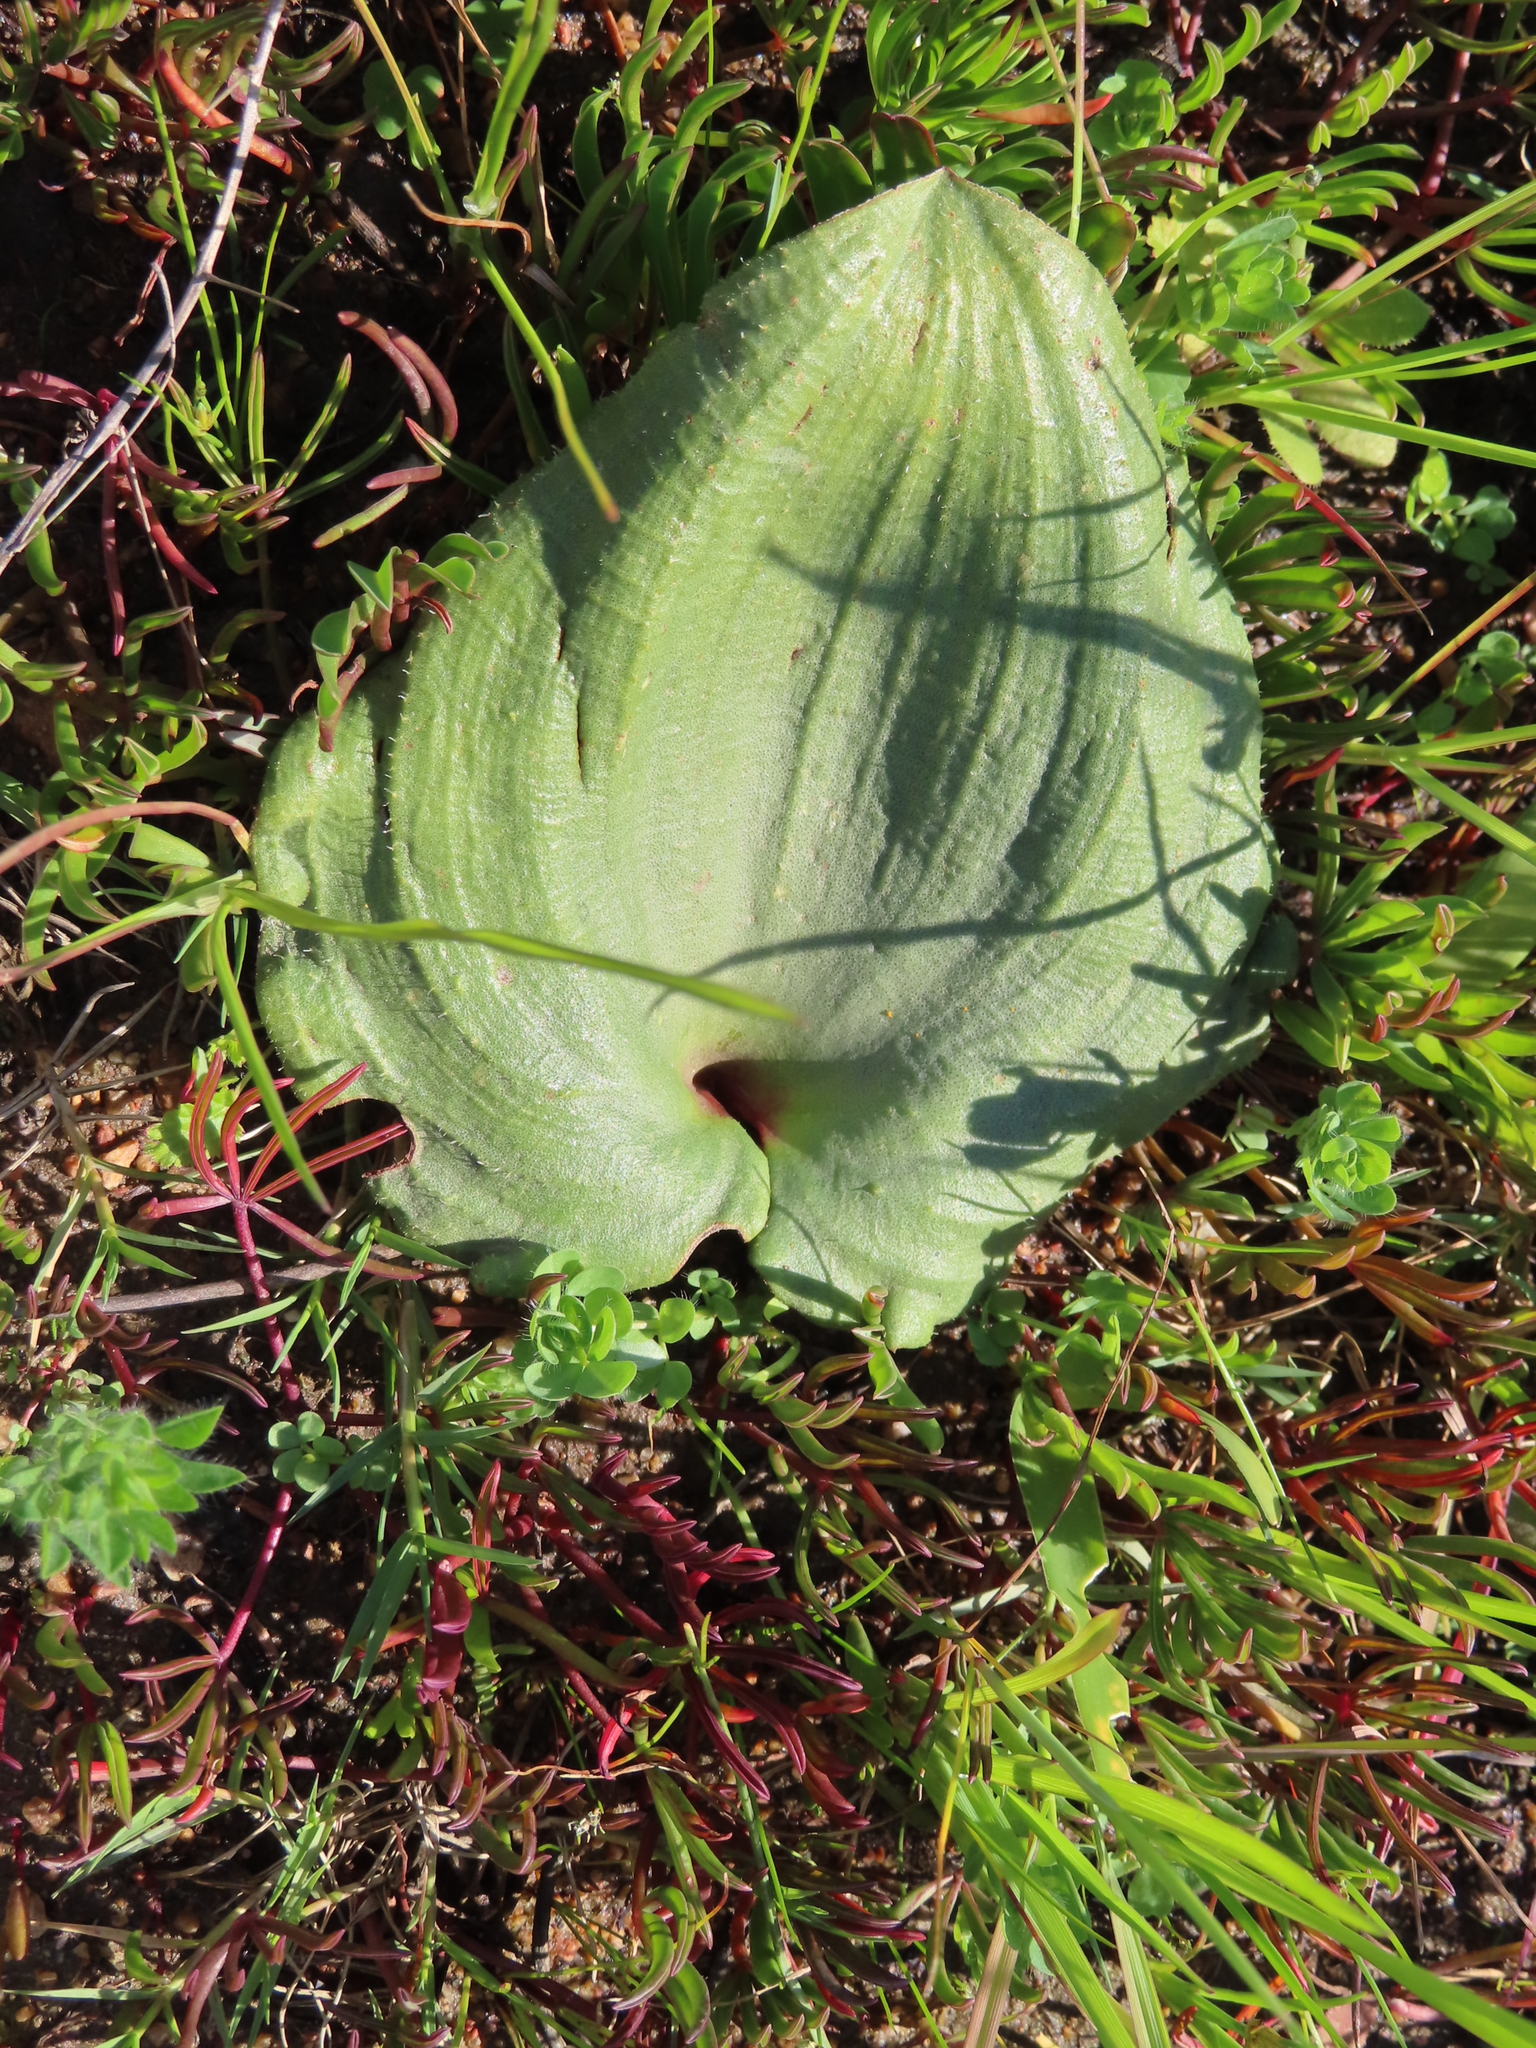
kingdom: Plantae
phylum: Tracheophyta
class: Liliopsida
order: Asparagales
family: Asparagaceae
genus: Eriospermum
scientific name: Eriospermum capense
